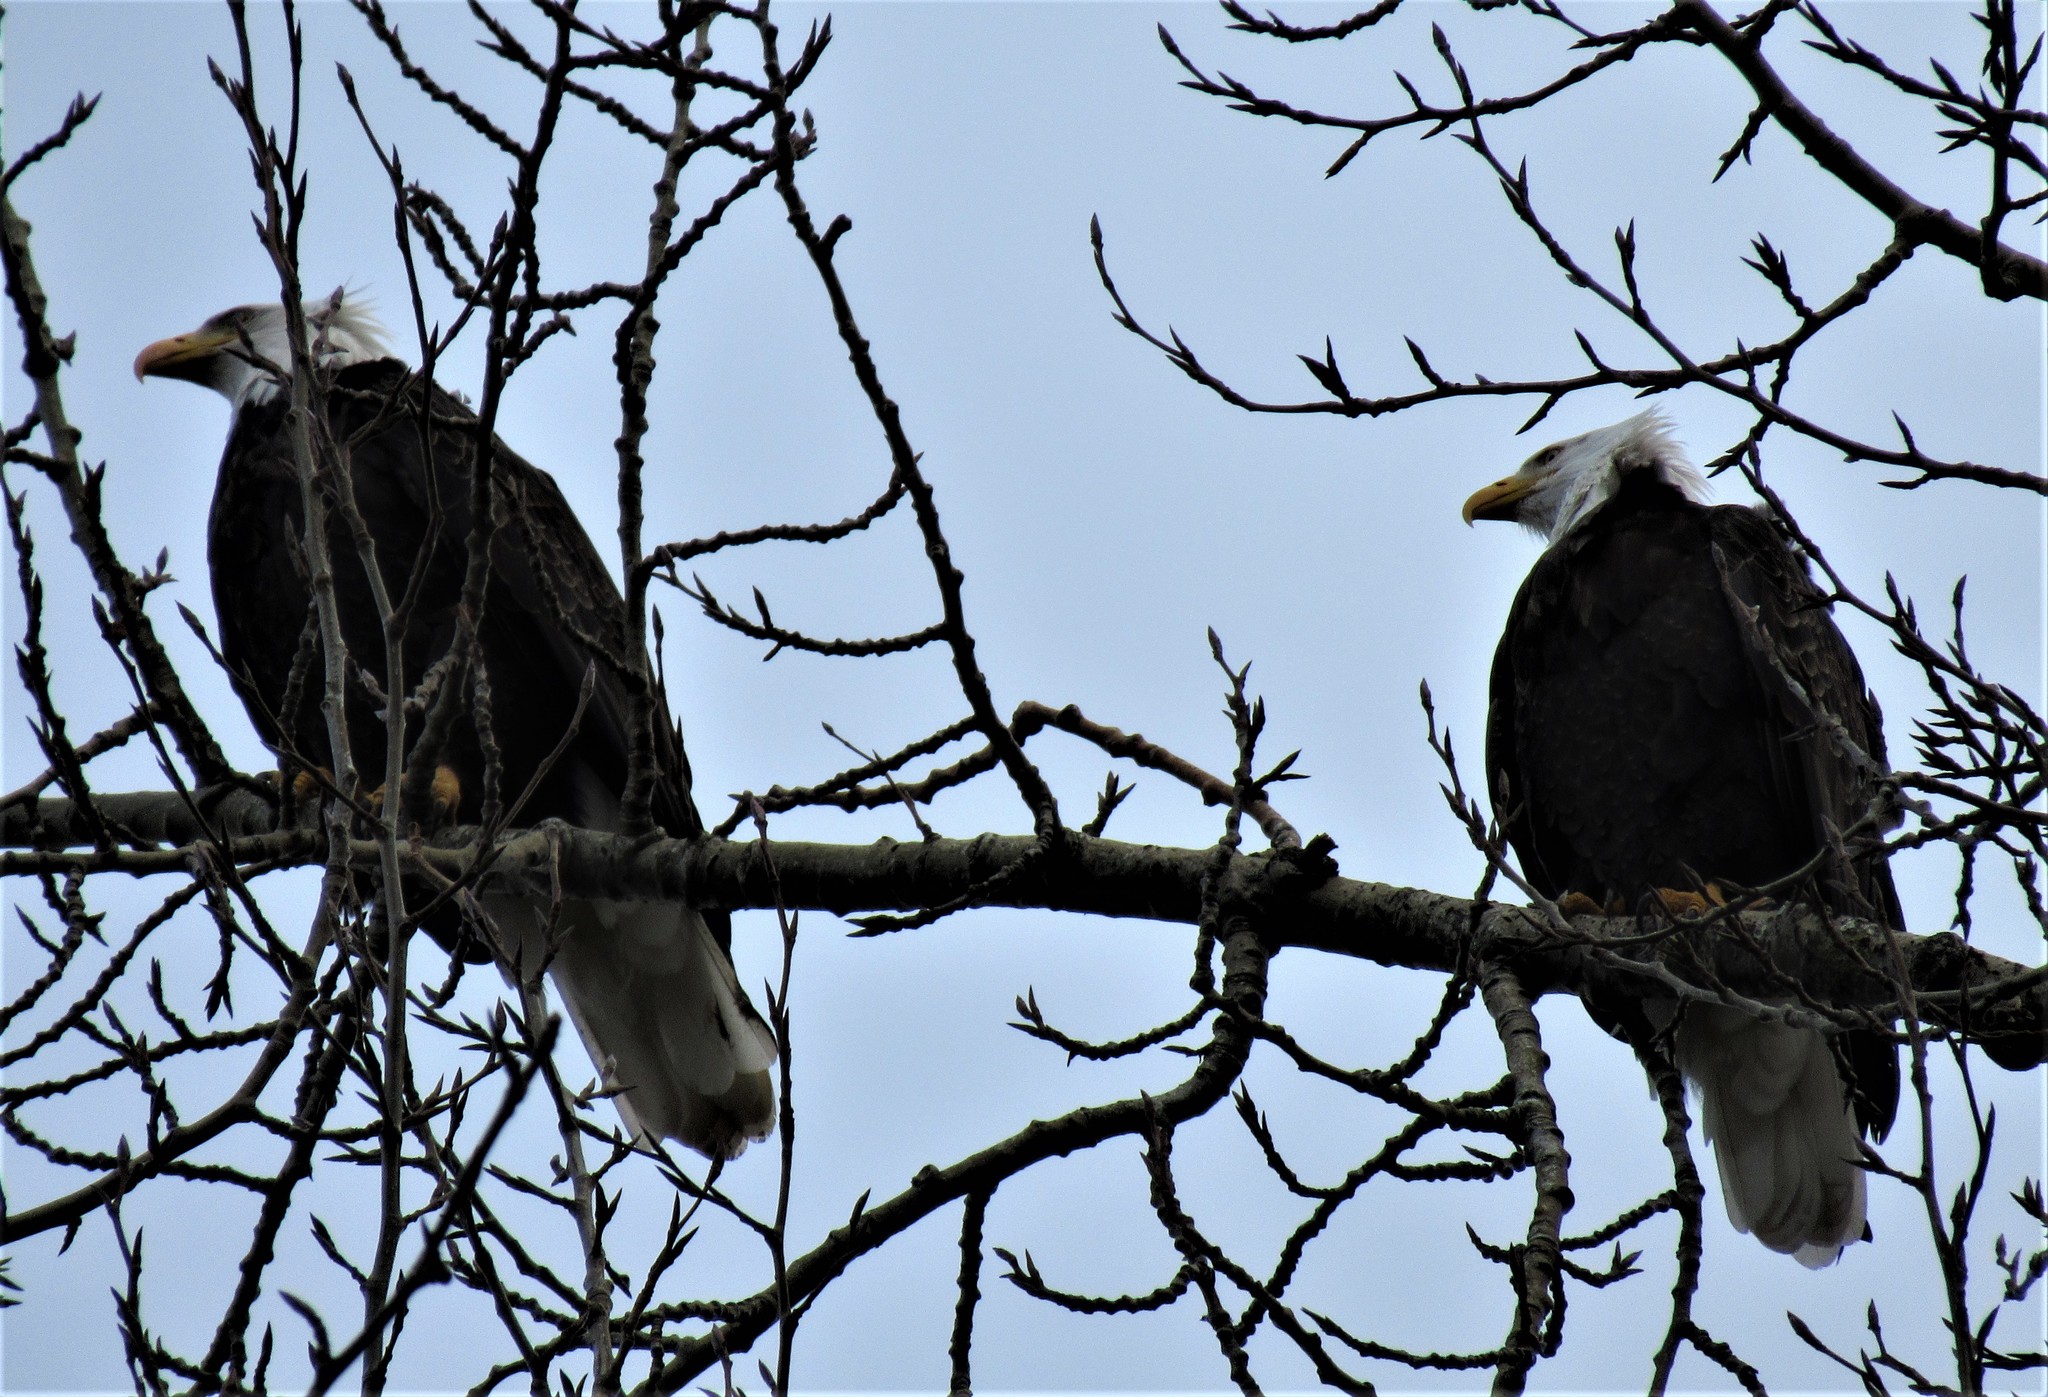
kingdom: Animalia
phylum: Chordata
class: Aves
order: Accipitriformes
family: Accipitridae
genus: Haliaeetus
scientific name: Haliaeetus leucocephalus
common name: Bald eagle
